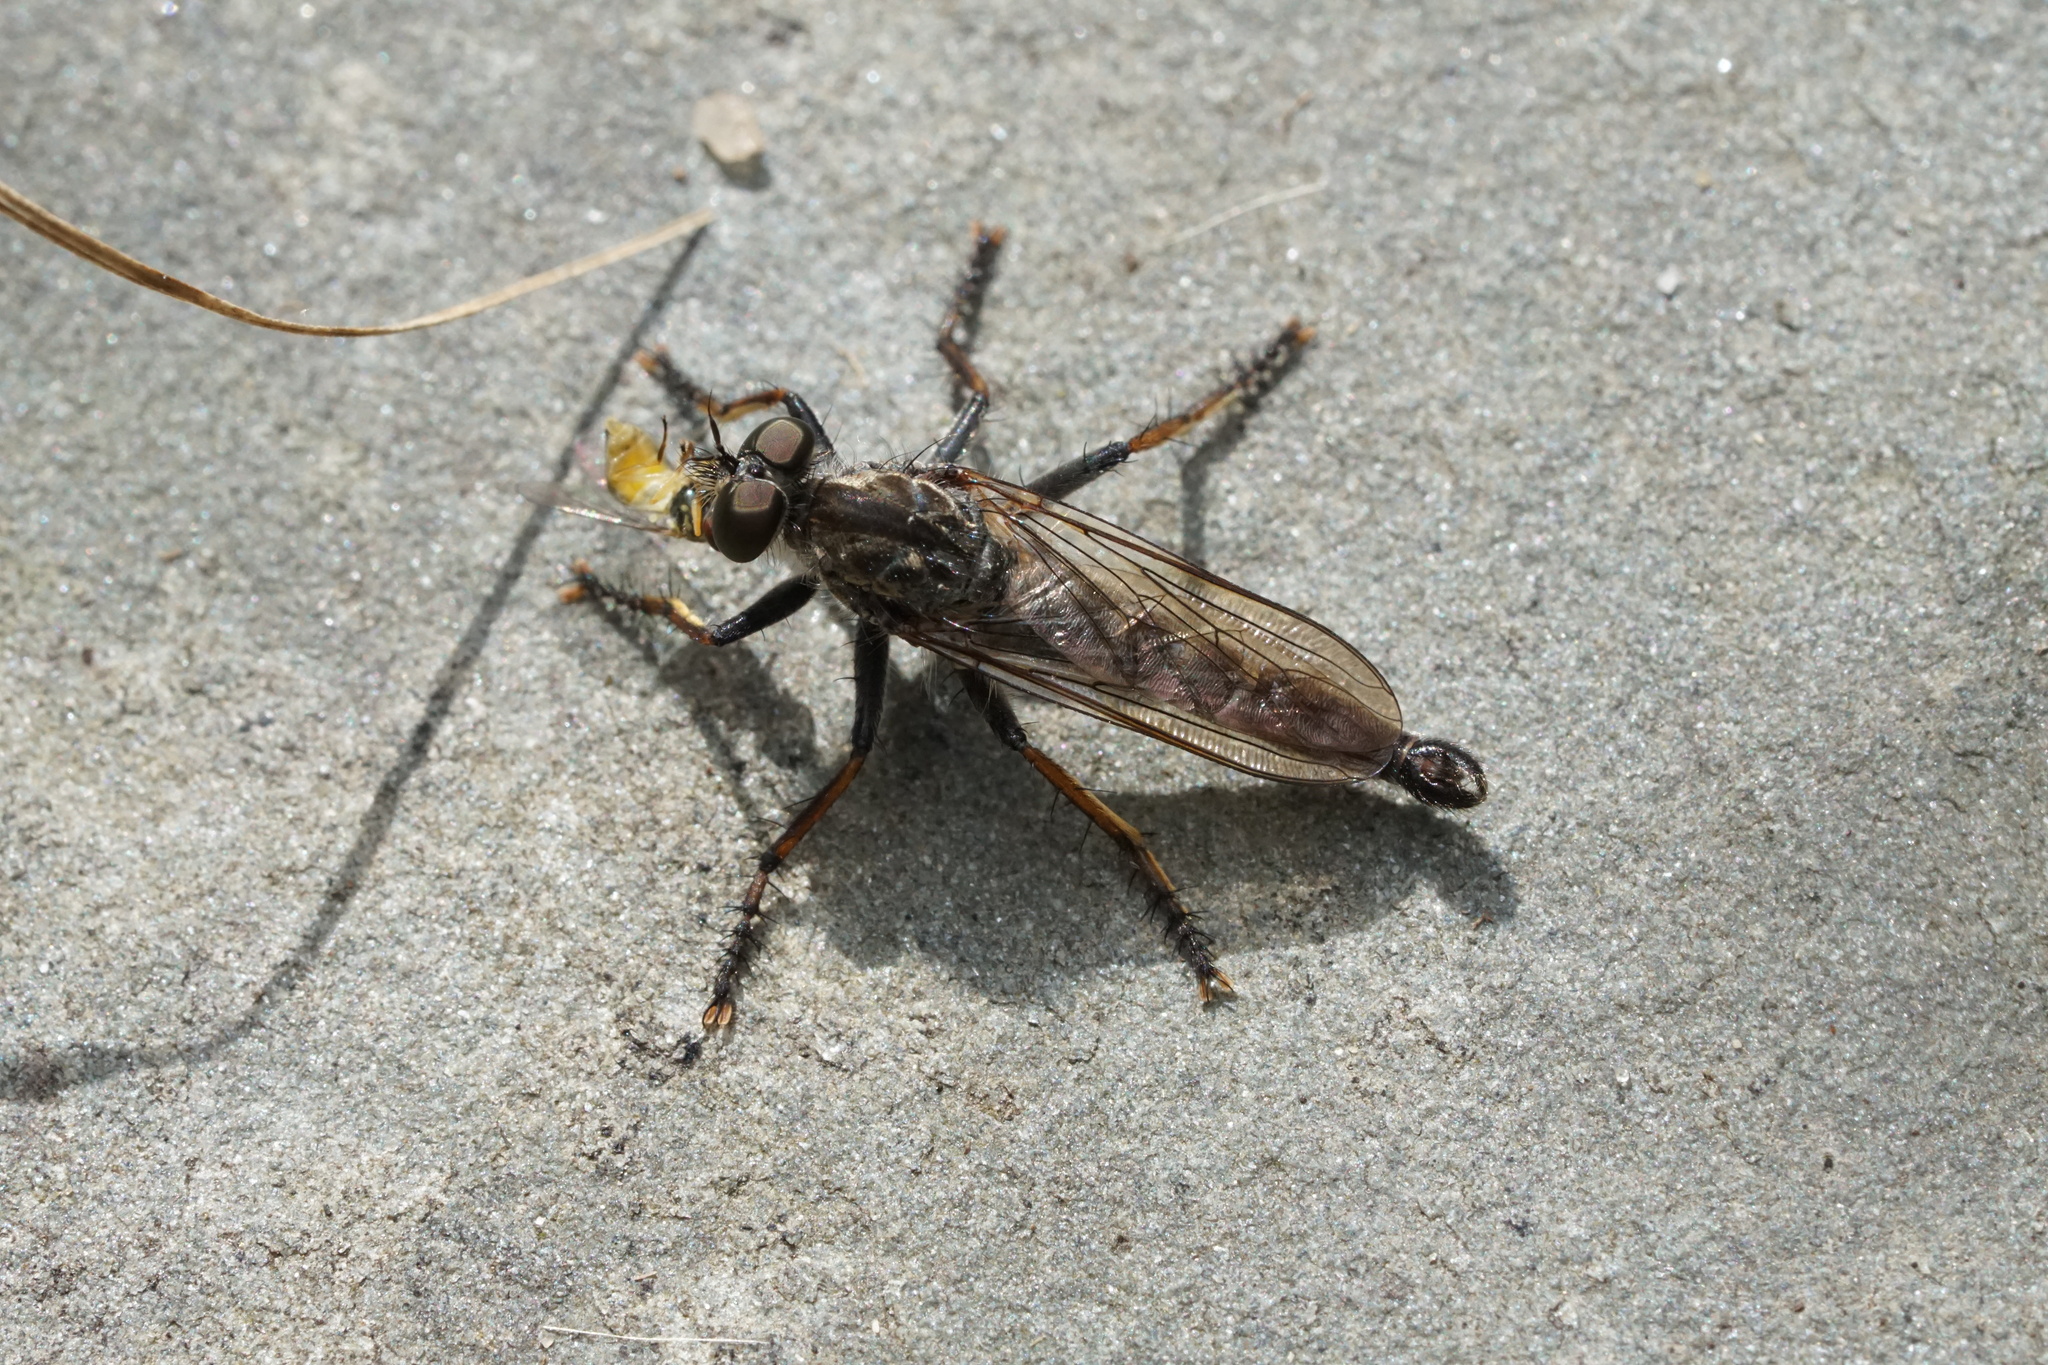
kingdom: Animalia
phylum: Arthropoda
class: Insecta
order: Diptera
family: Asilidae
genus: Machimus
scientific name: Machimus sadyates
